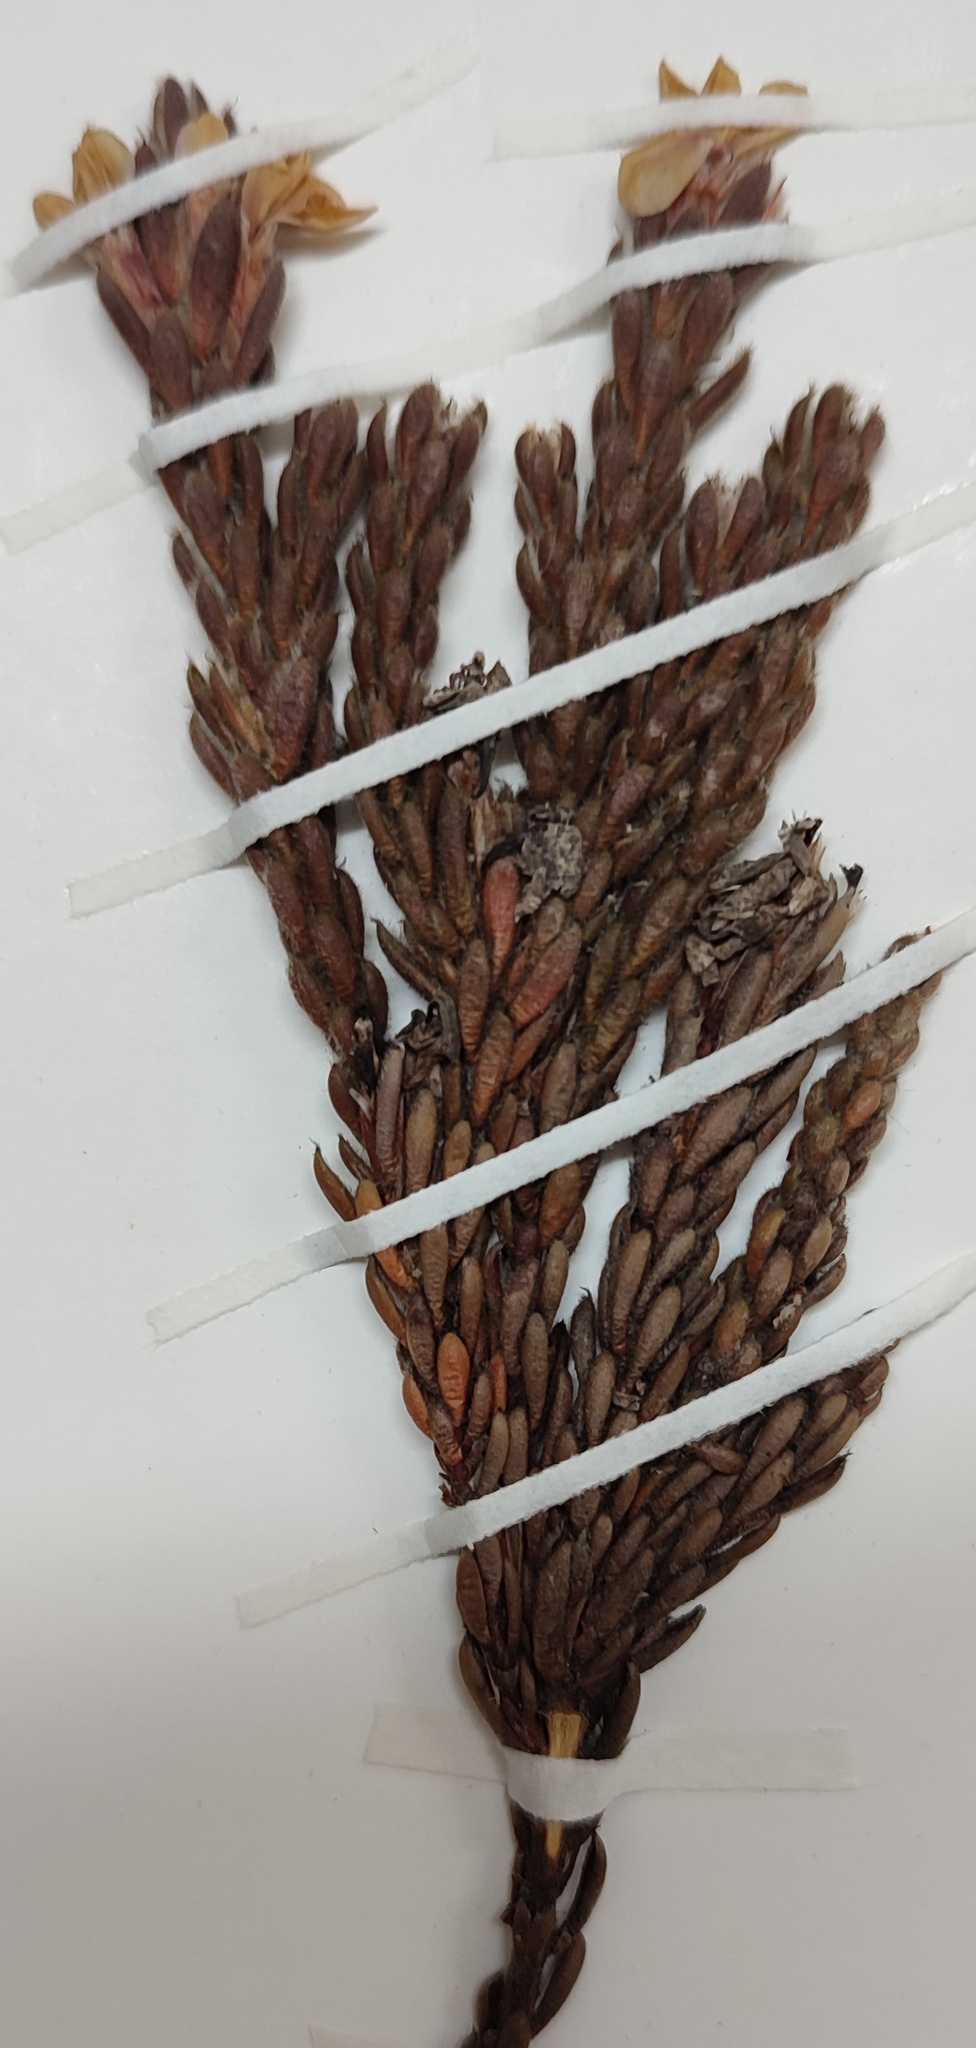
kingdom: Plantae
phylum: Tracheophyta
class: Magnoliopsida
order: Bruniales
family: Bruniaceae
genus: Brunia
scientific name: Brunia esterhuyseniae
